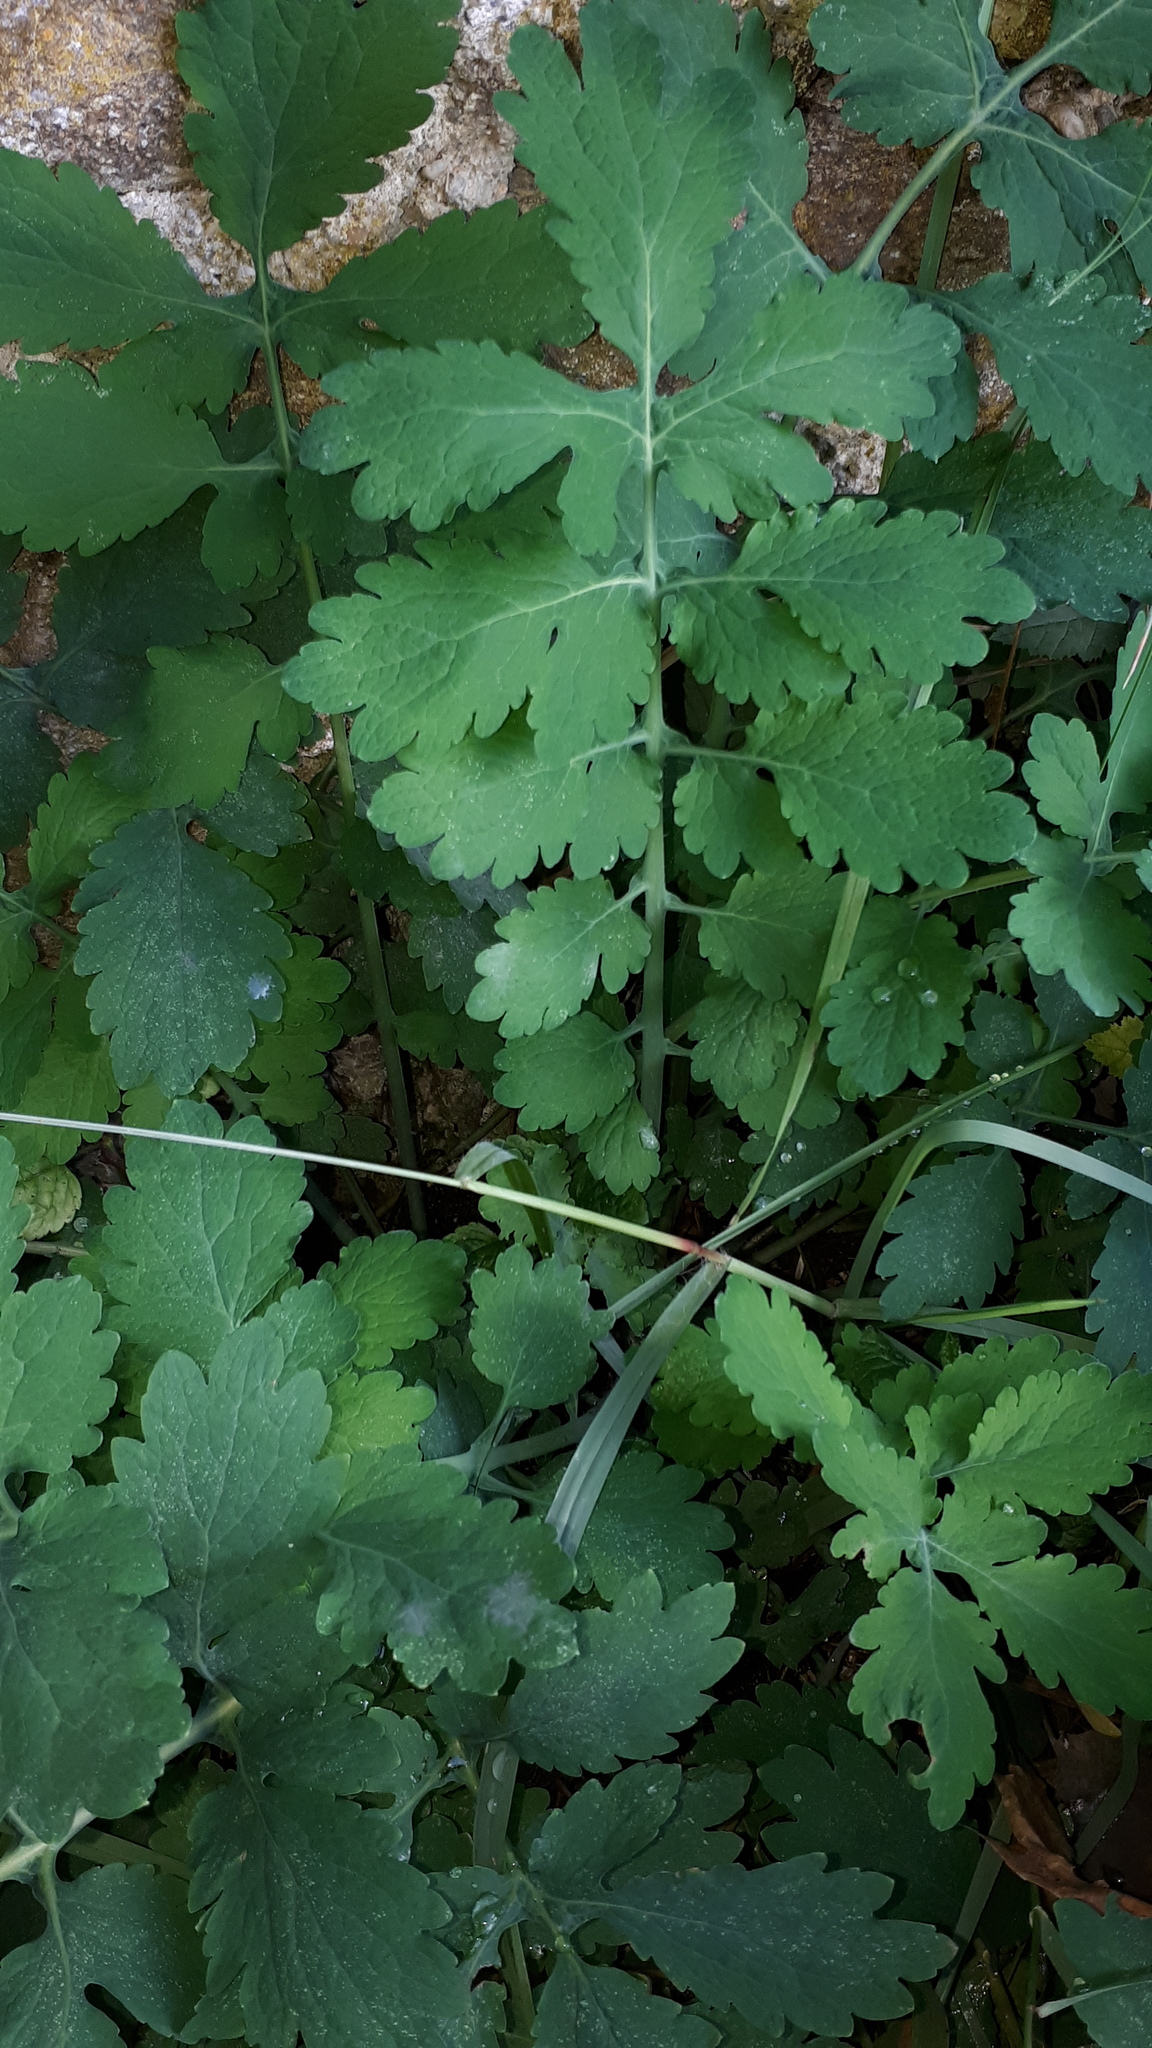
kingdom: Plantae
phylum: Tracheophyta
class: Magnoliopsida
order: Ranunculales
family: Papaveraceae
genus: Chelidonium
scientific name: Chelidonium majus
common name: Greater celandine
